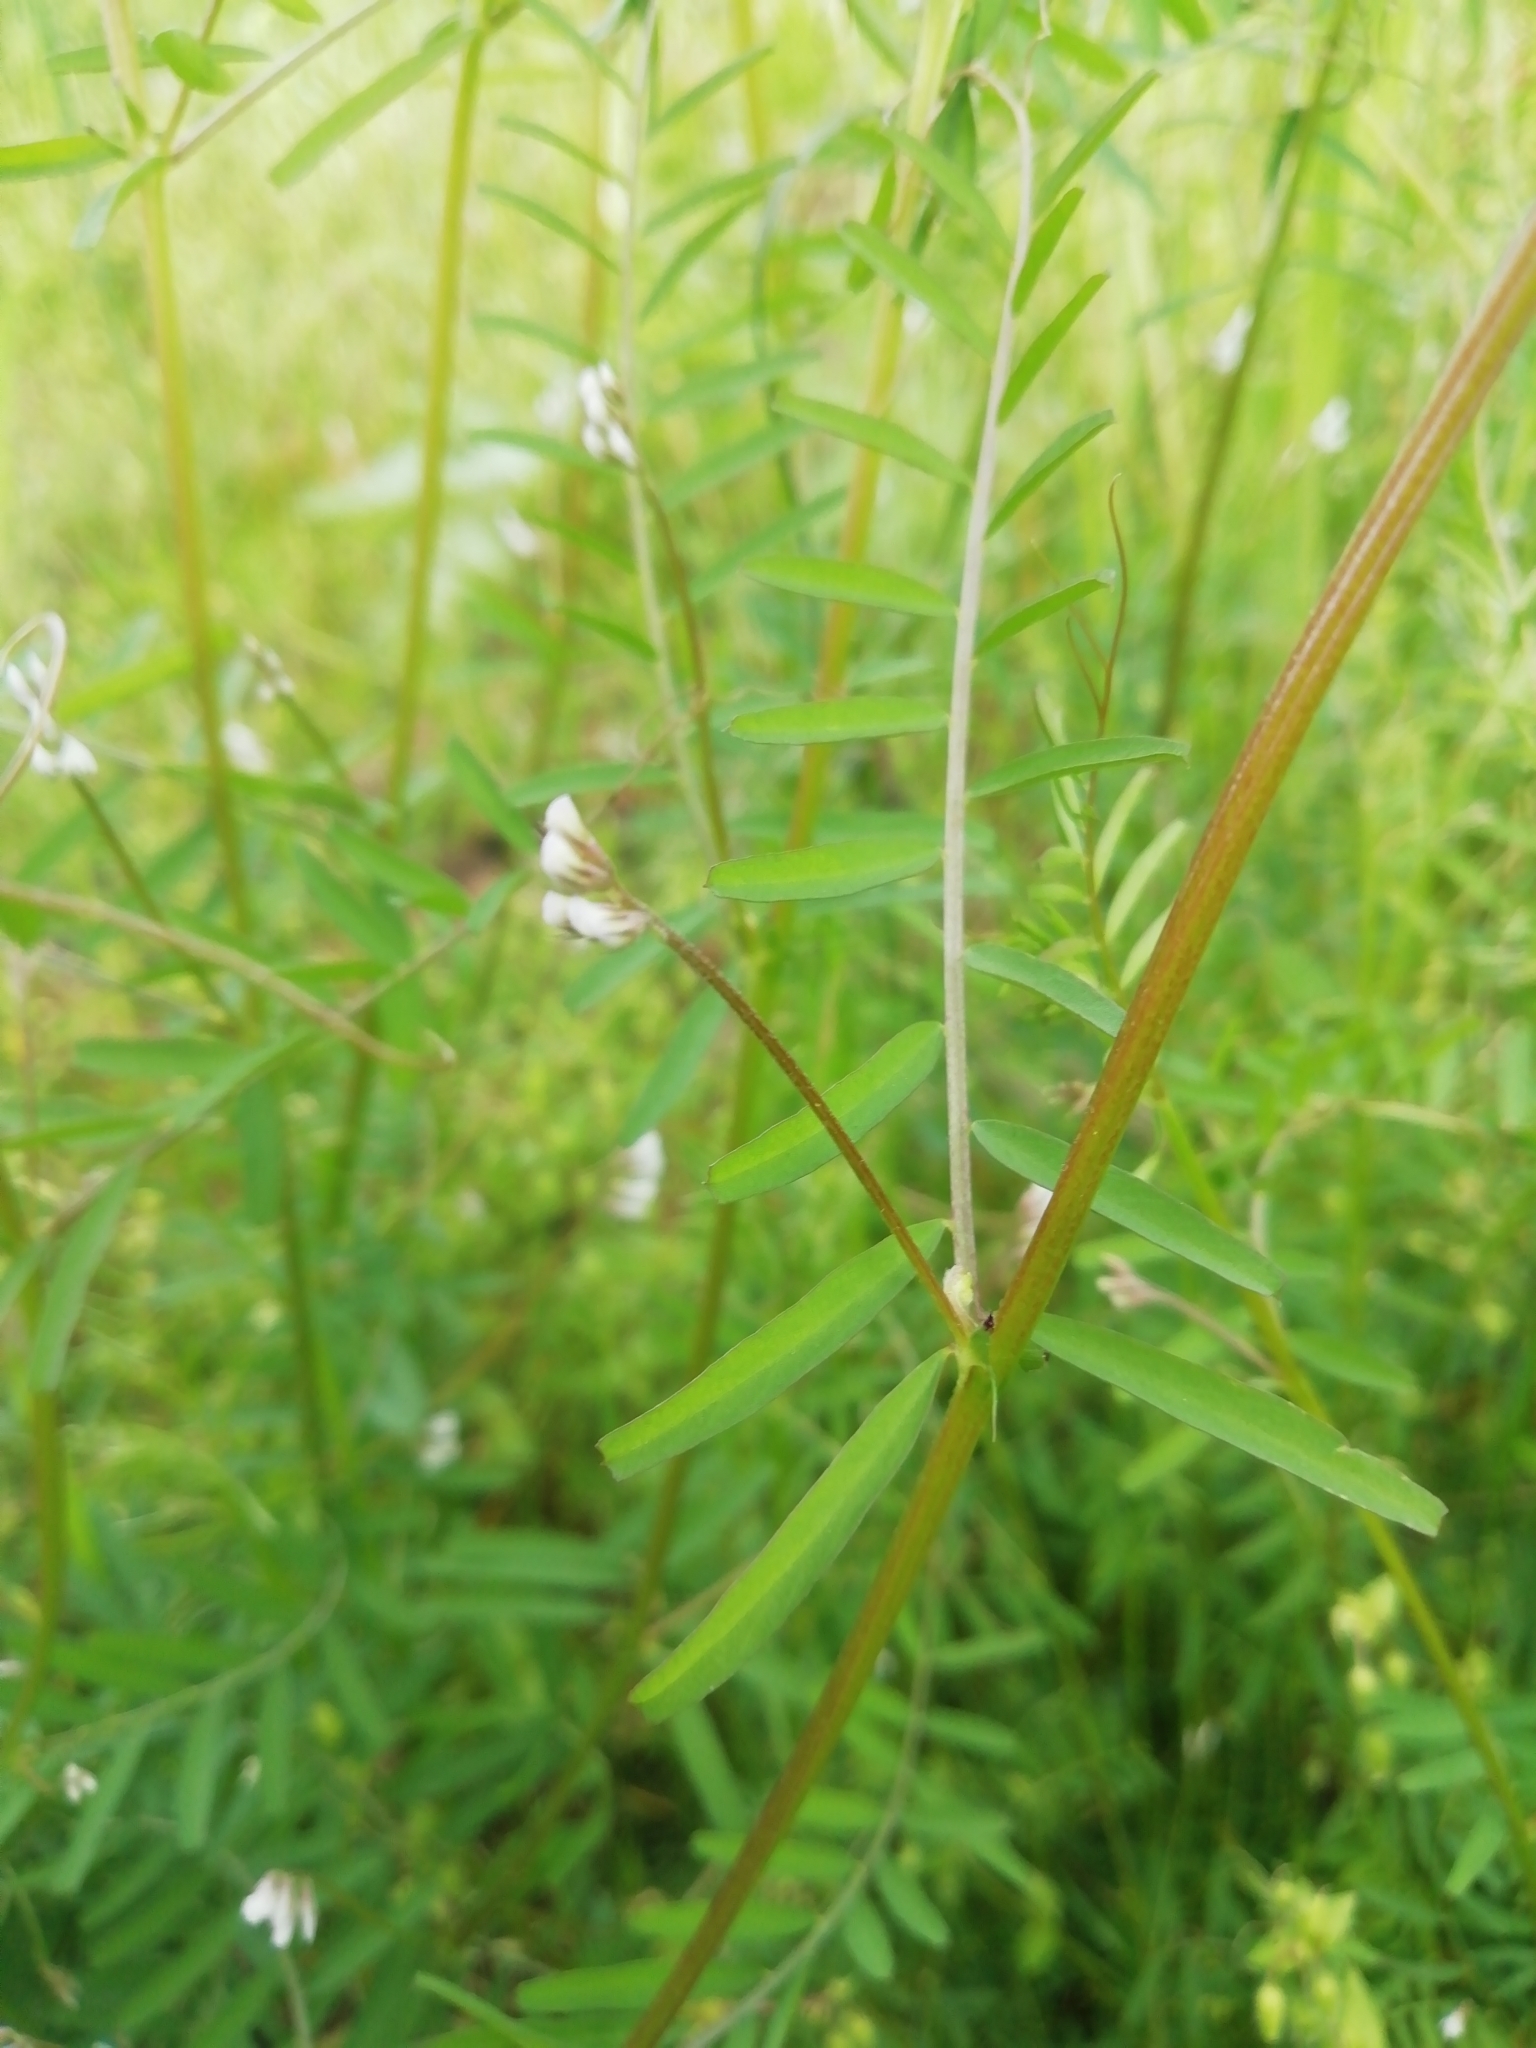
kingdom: Plantae
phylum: Tracheophyta
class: Magnoliopsida
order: Fabales
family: Fabaceae
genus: Vicia
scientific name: Vicia hirsuta
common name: Tiny vetch
